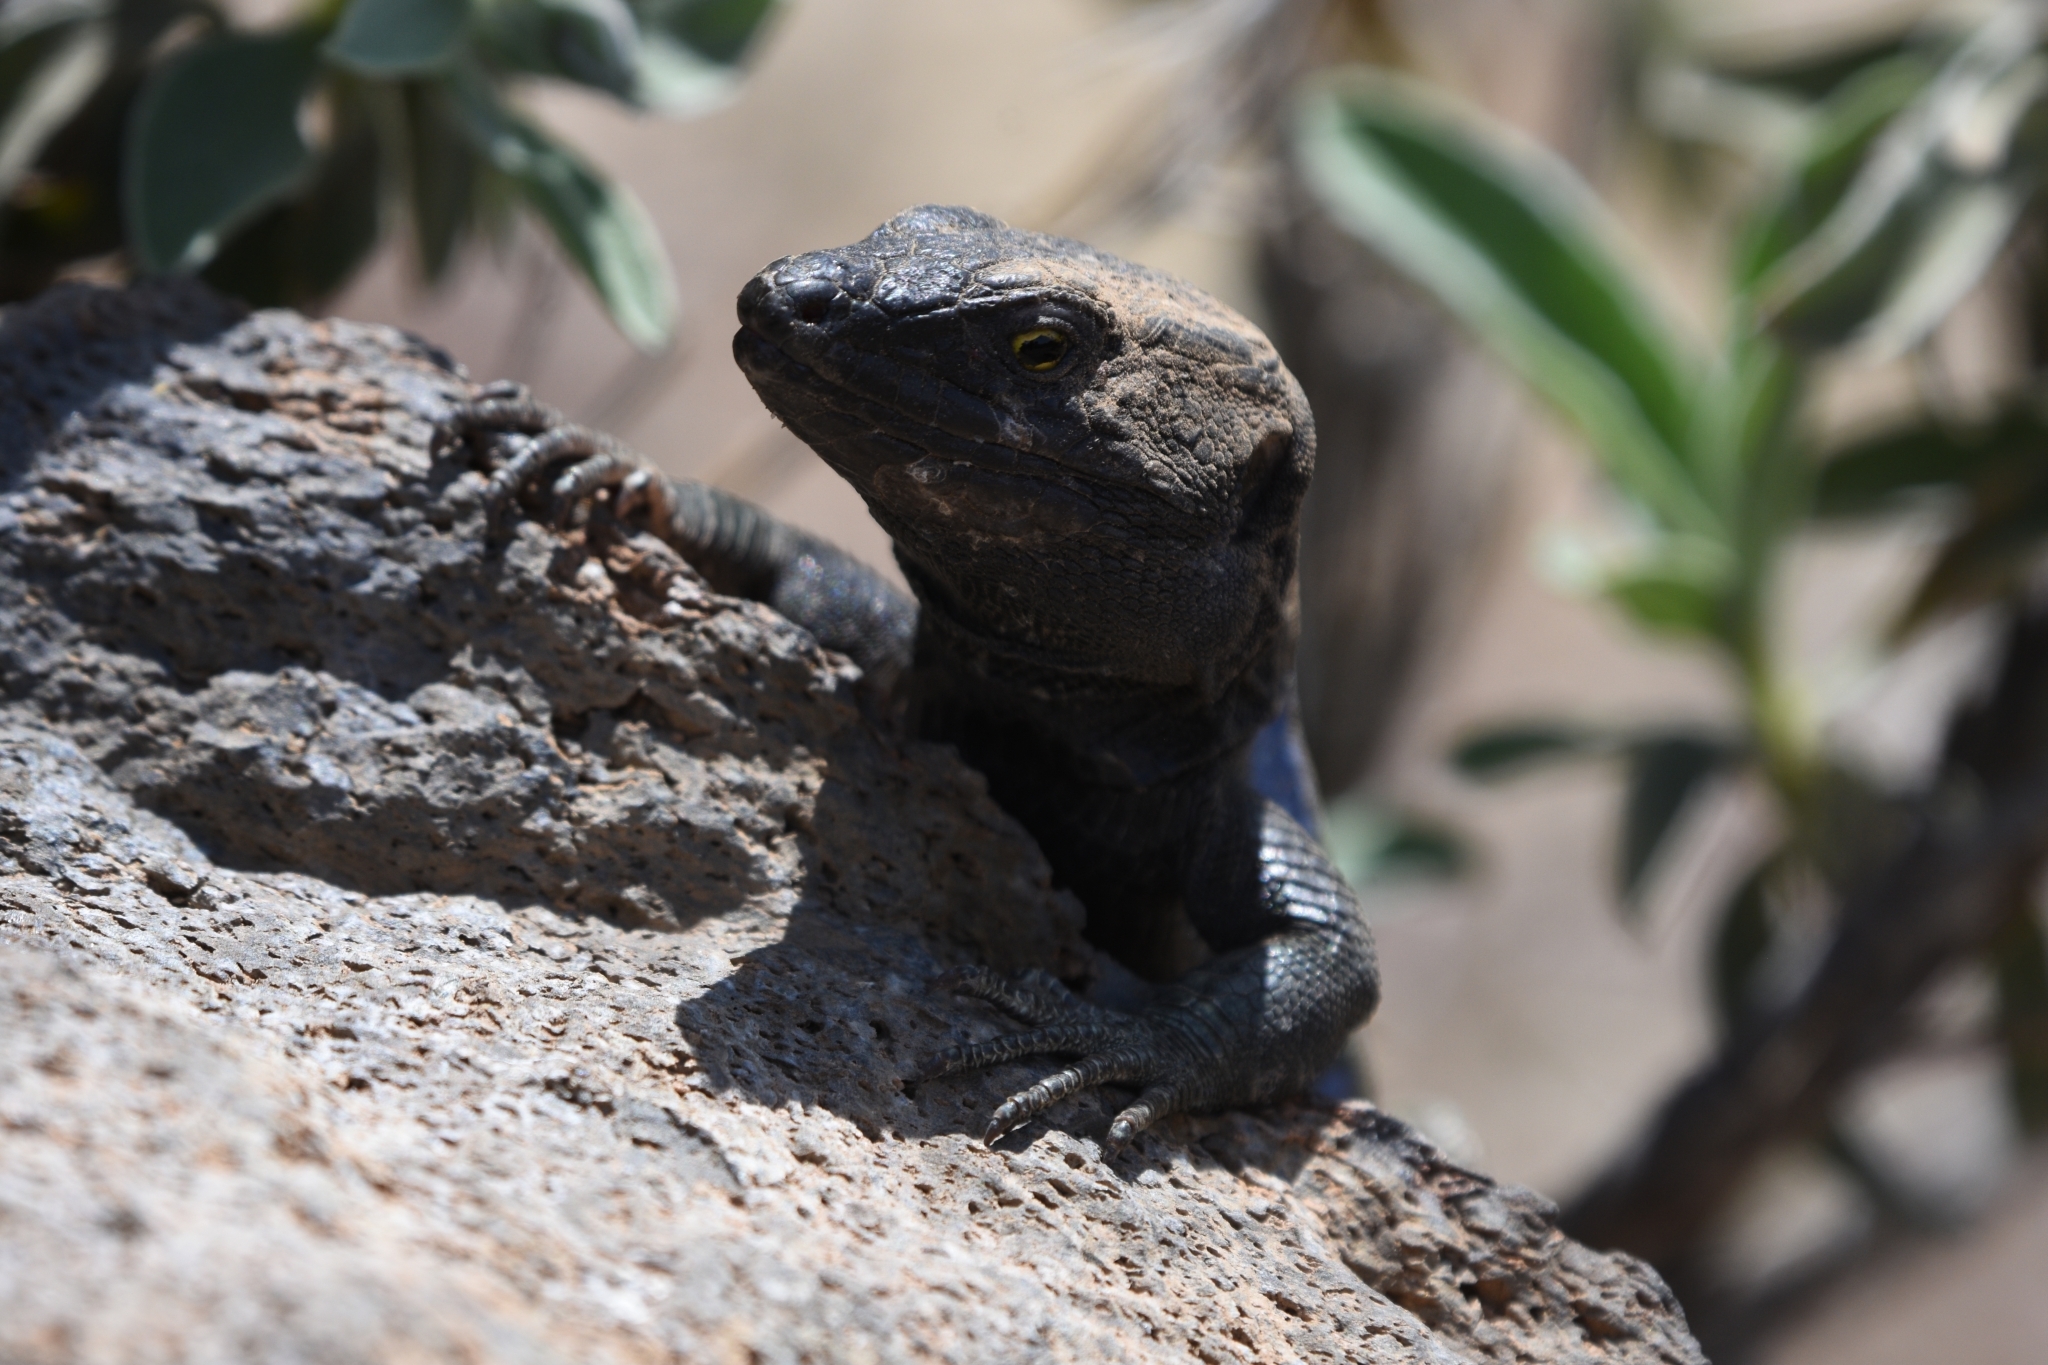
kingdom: Animalia
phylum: Chordata
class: Squamata
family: Lacertidae
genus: Gallotia
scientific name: Gallotia galloti
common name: Gallot's lizard
